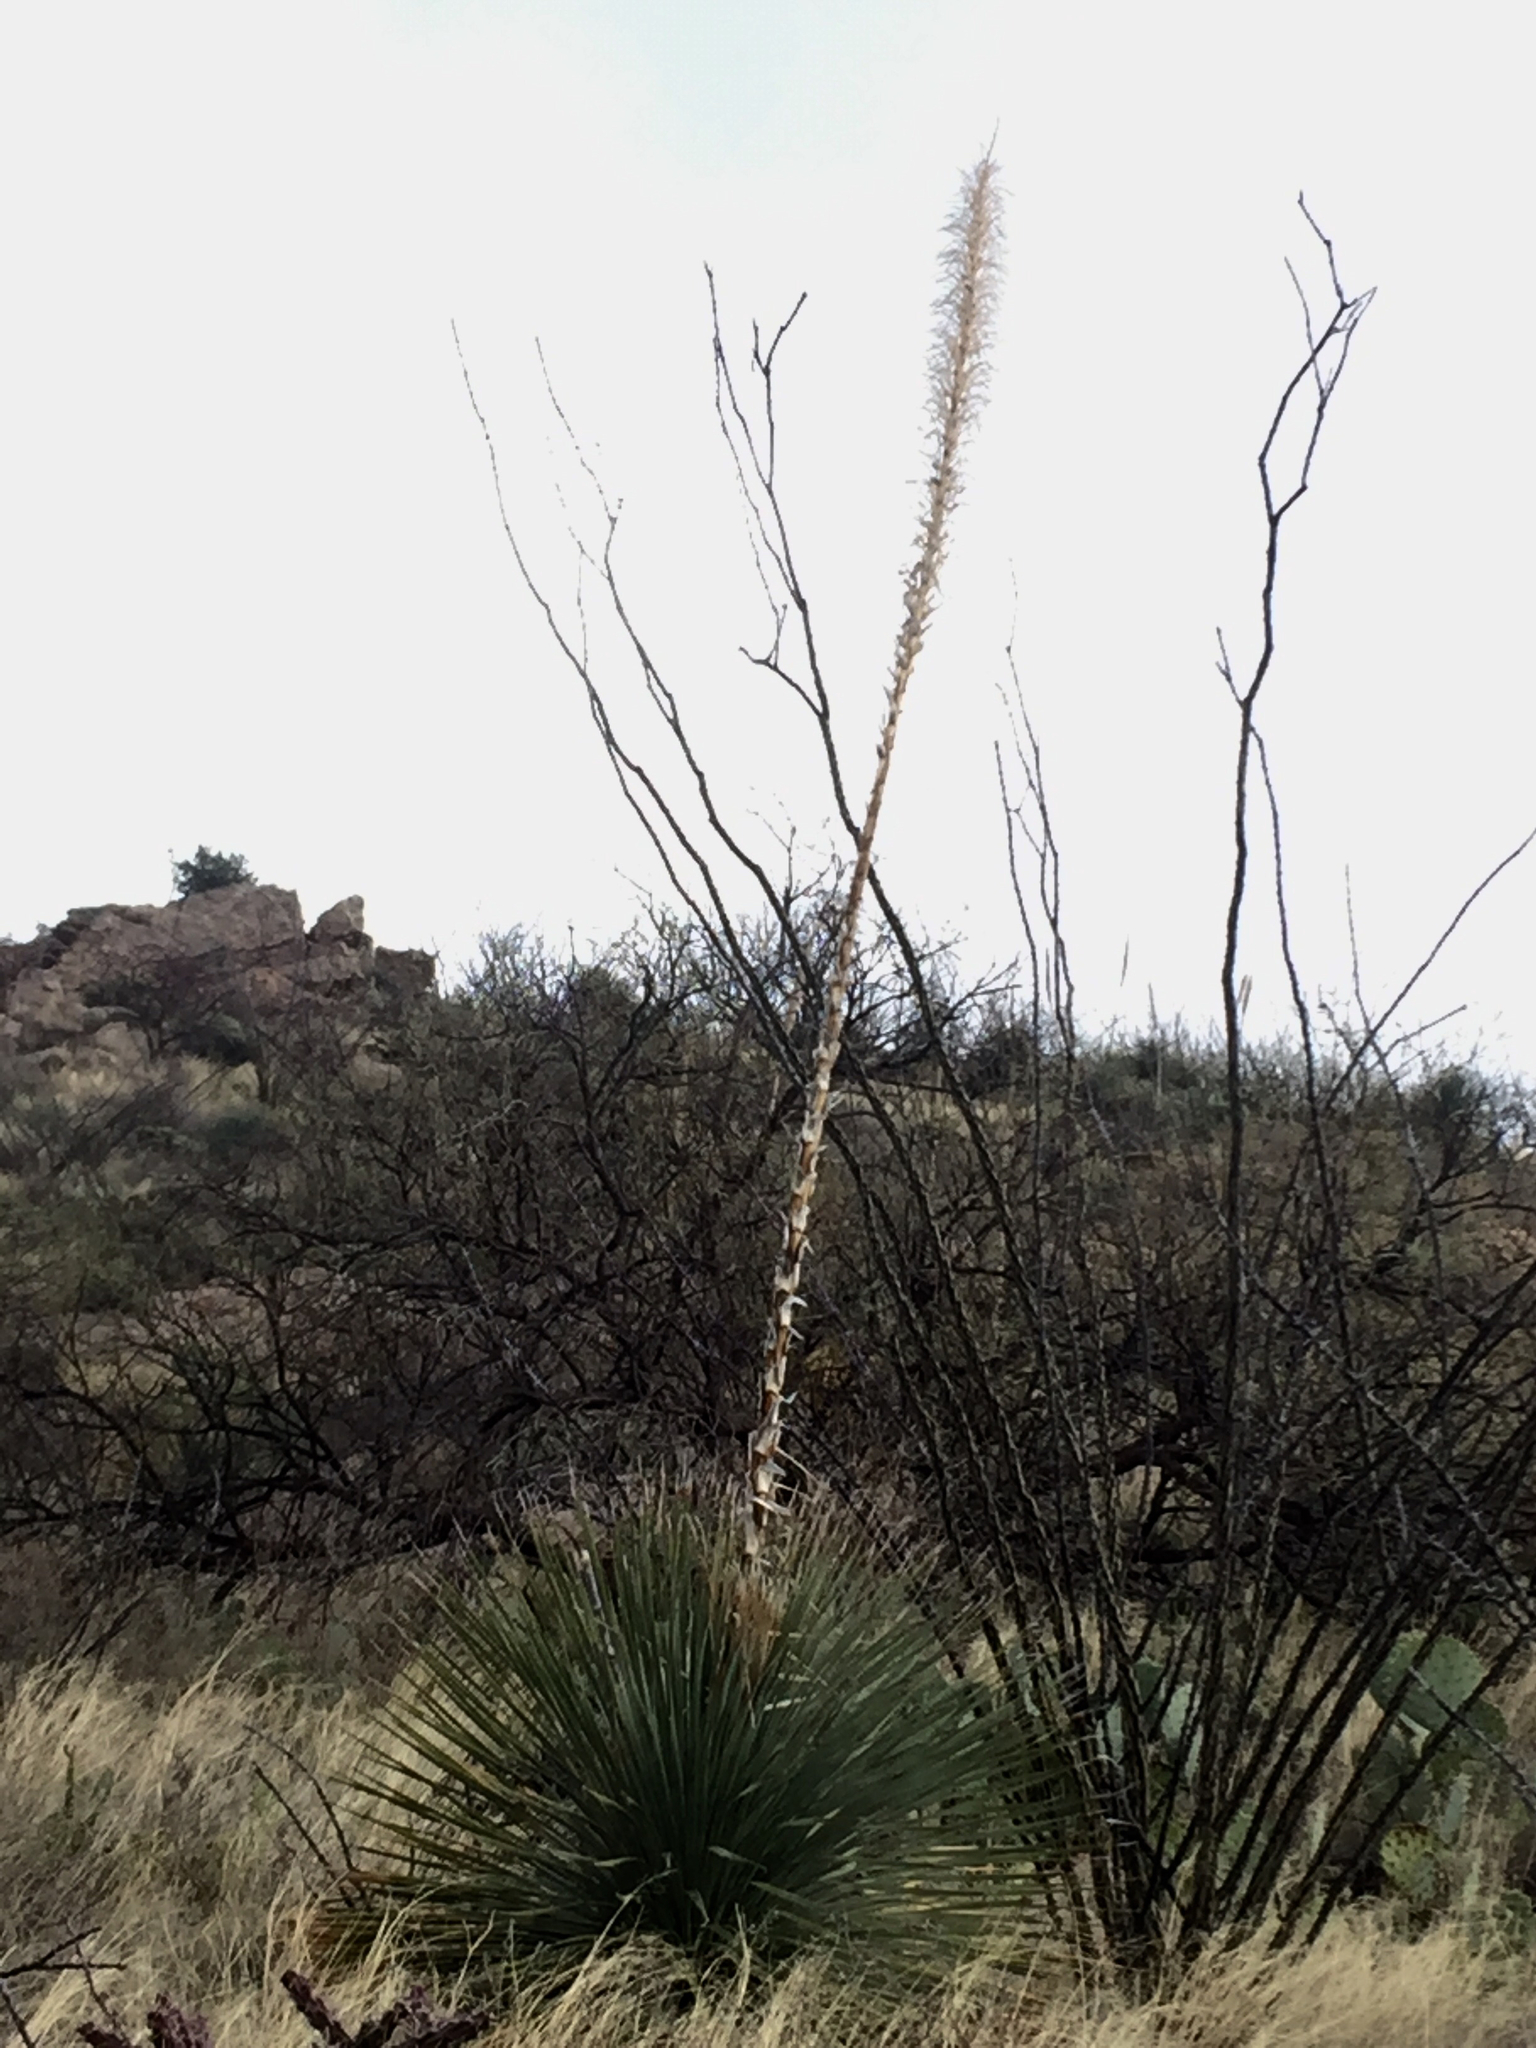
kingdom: Plantae
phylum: Tracheophyta
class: Liliopsida
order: Asparagales
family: Asparagaceae
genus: Dasylirion
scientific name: Dasylirion wheeleri
